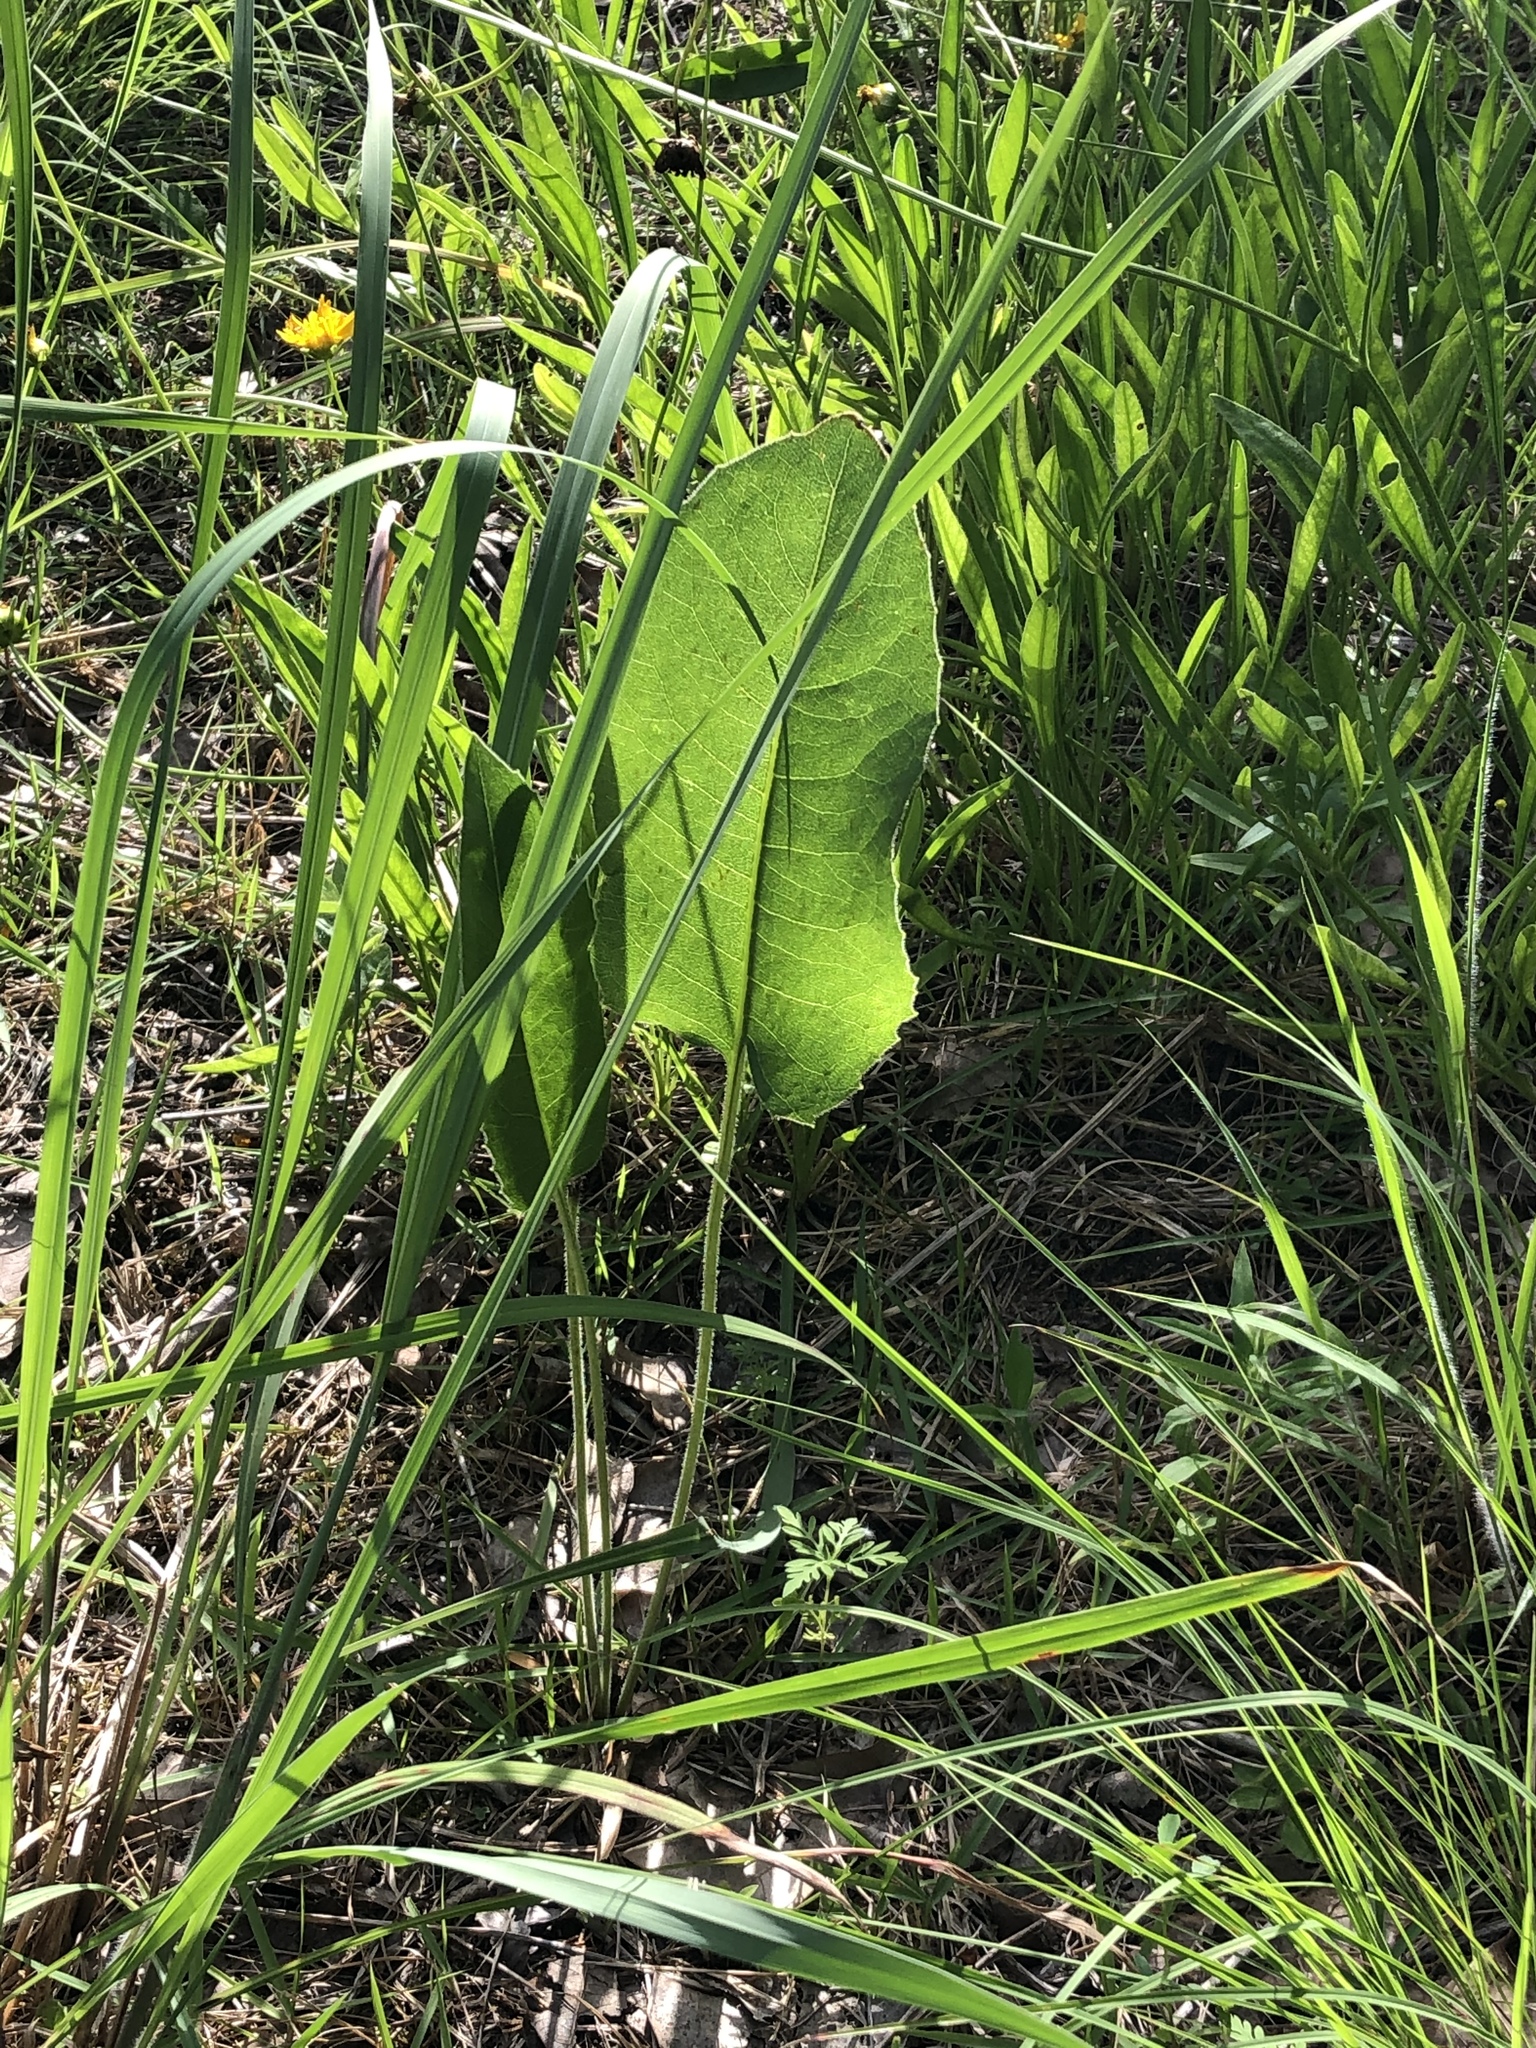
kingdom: Plantae
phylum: Tracheophyta
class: Magnoliopsida
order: Asterales
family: Asteraceae
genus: Silphium
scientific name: Silphium terebinthinaceum
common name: Basal-leaf rosinweed
